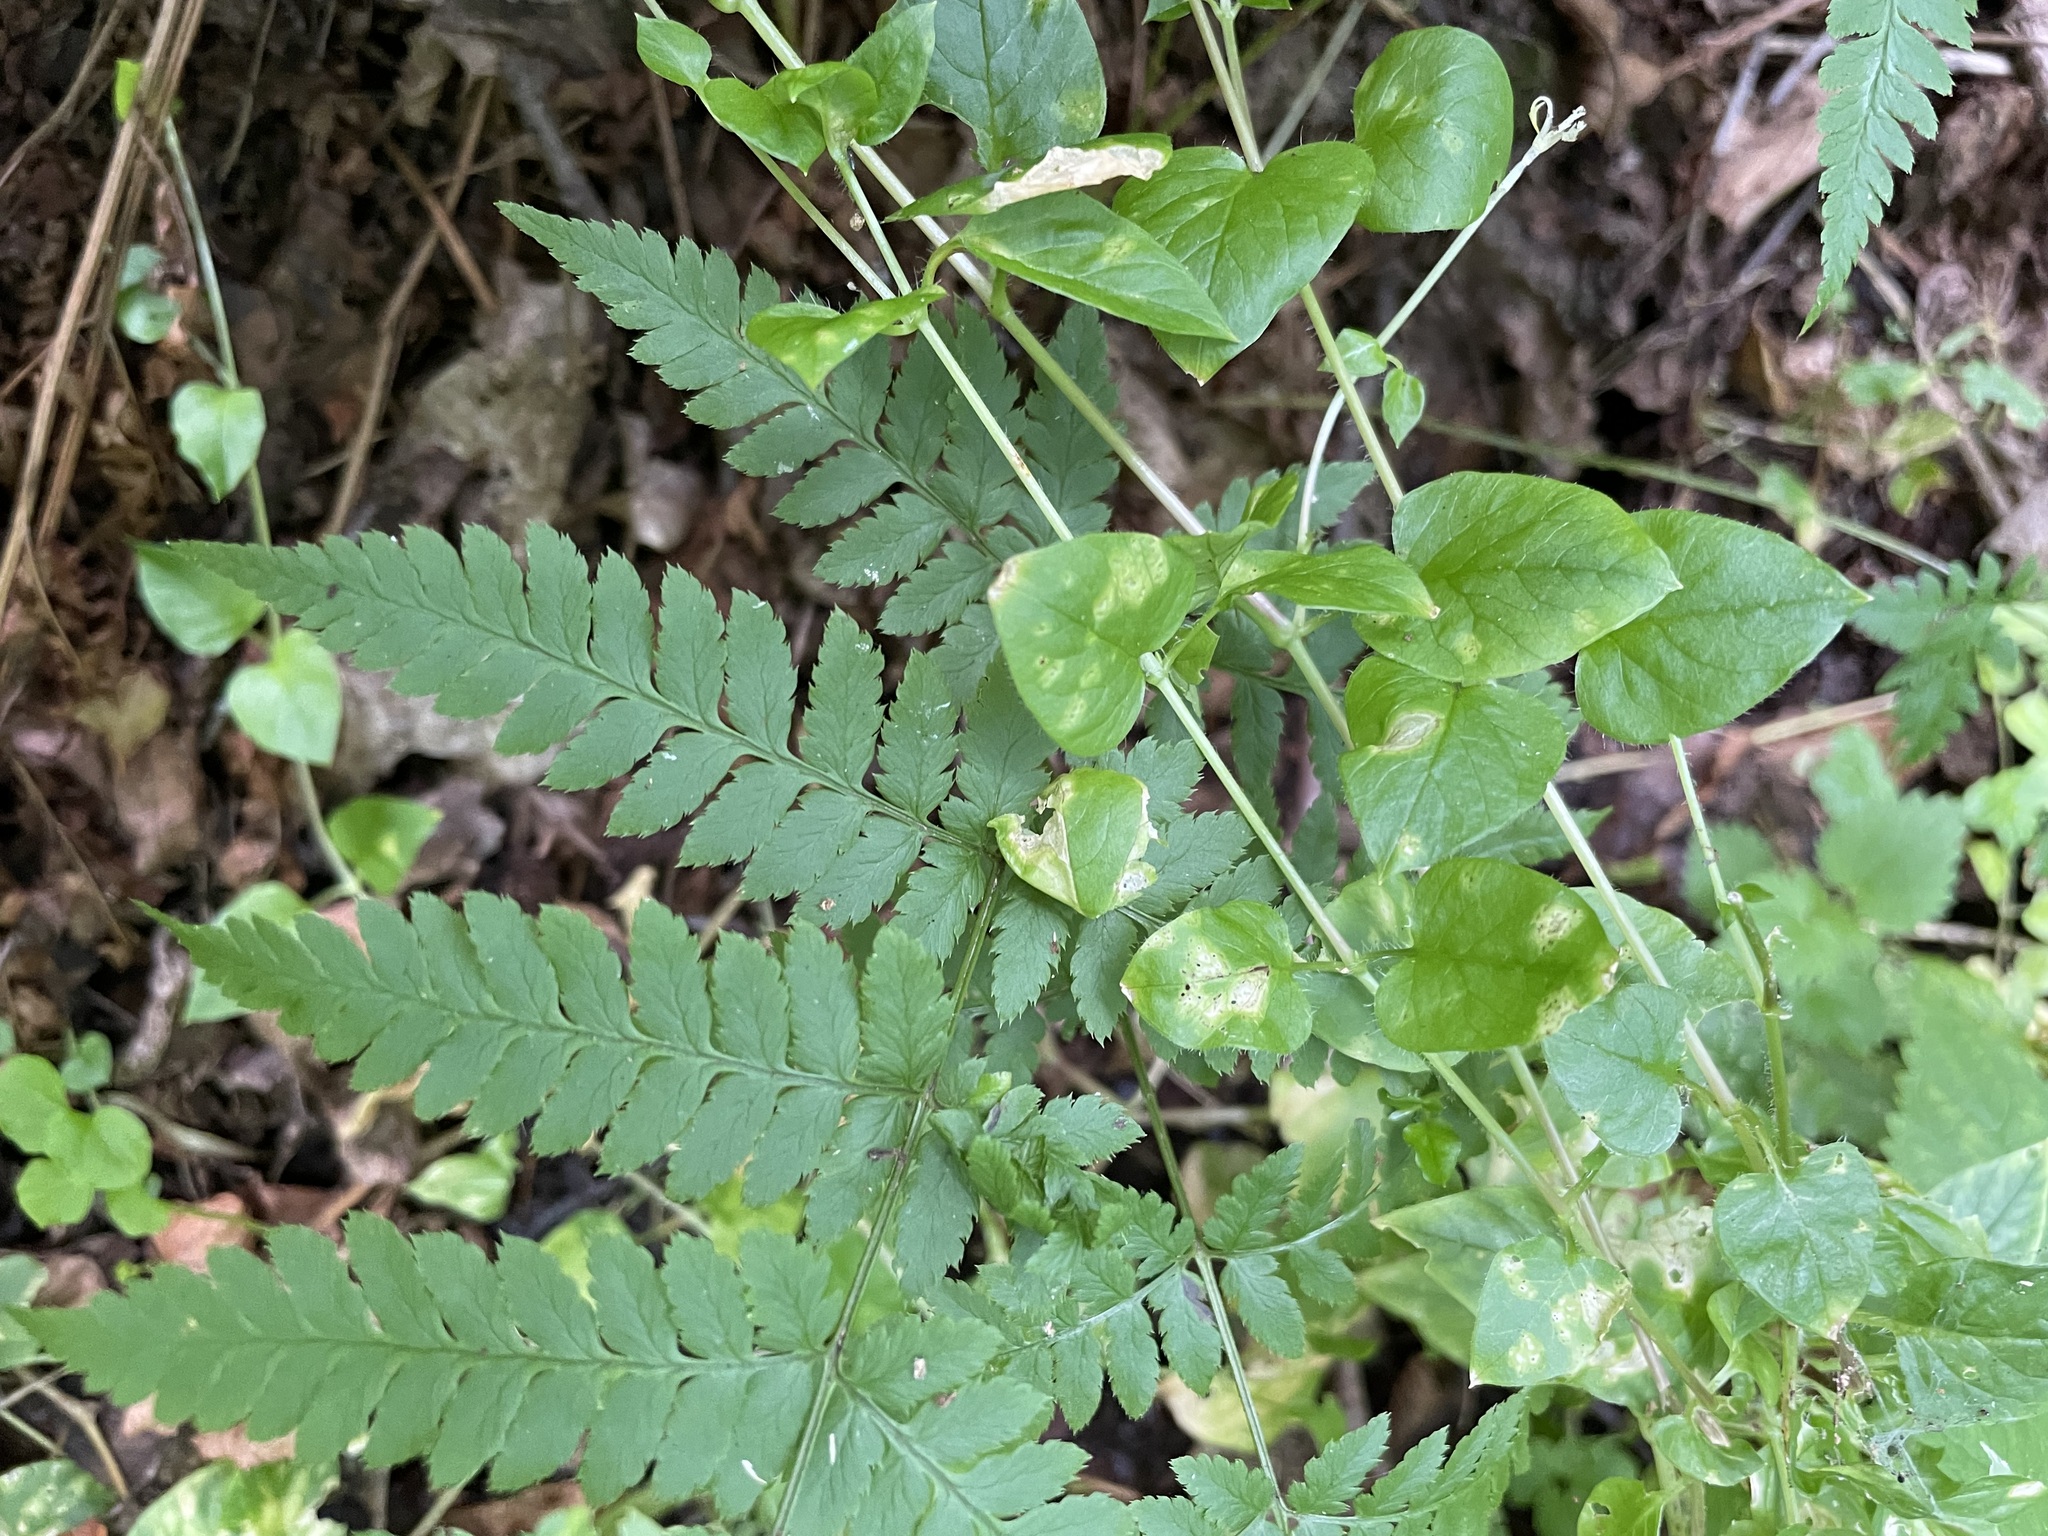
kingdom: Plantae
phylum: Tracheophyta
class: Polypodiopsida
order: Polypodiales
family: Dryopteridaceae
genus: Dryopteris
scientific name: Dryopteris carthusiana
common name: Narrow buckler-fern
